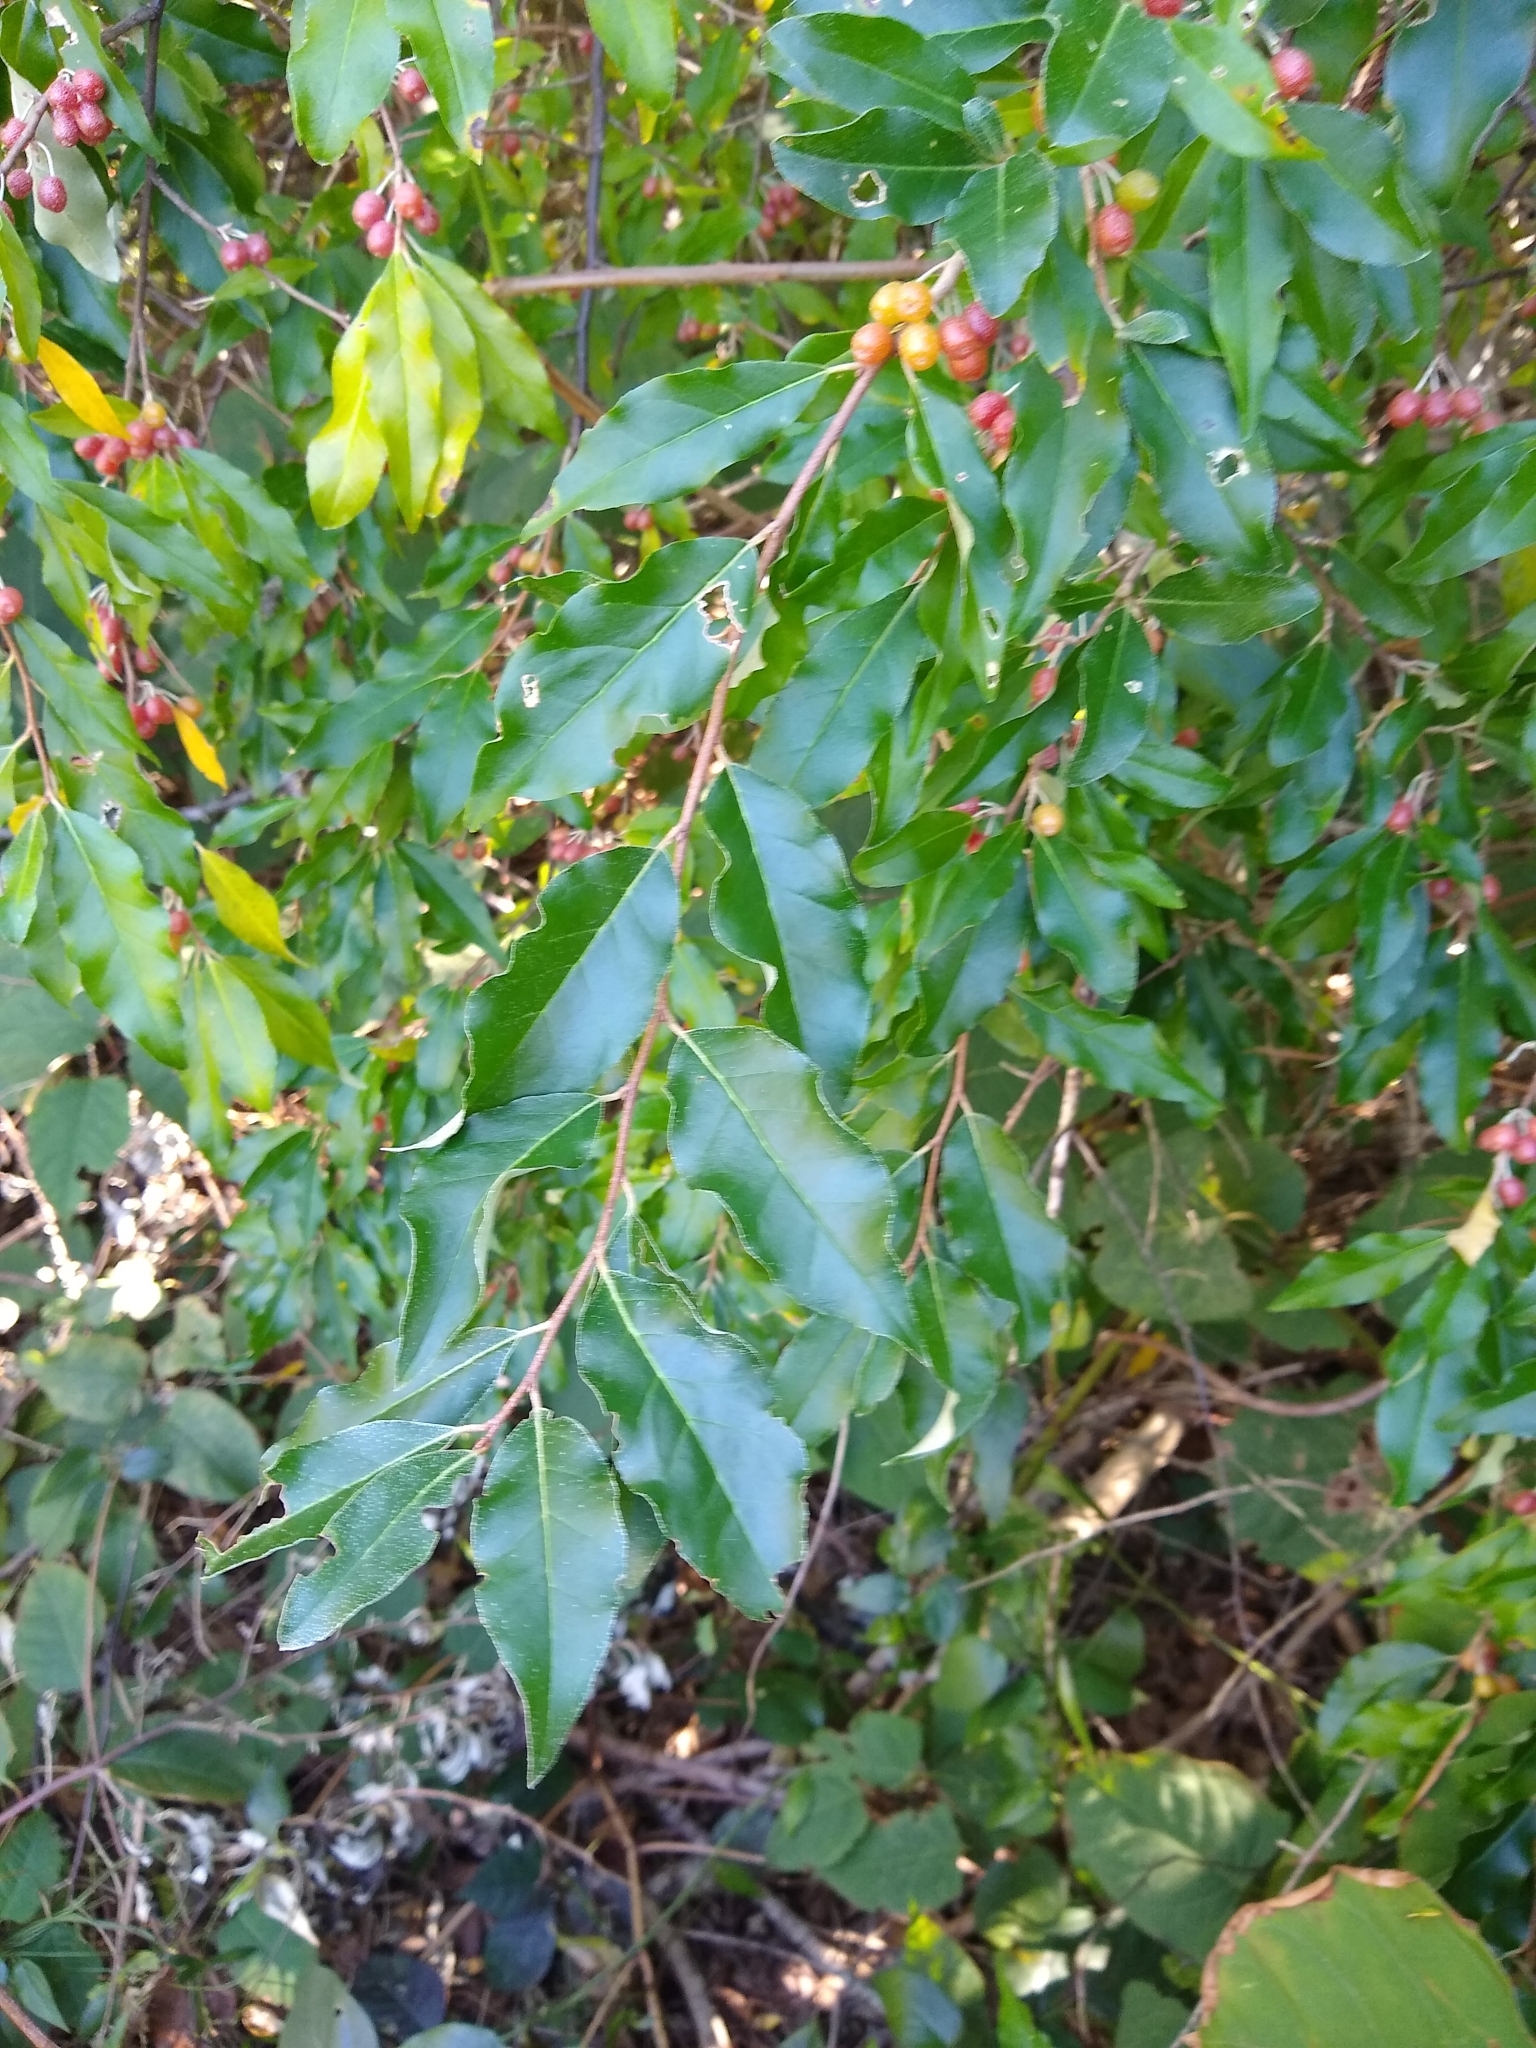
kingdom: Plantae
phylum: Tracheophyta
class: Magnoliopsida
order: Rosales
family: Elaeagnaceae
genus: Elaeagnus
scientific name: Elaeagnus umbellata
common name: Autumn olive
